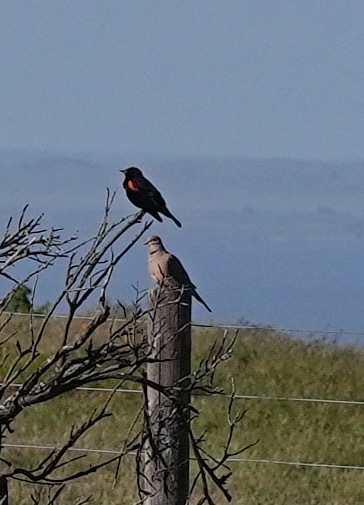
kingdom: Animalia
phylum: Chordata
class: Aves
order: Columbiformes
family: Columbidae
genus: Zenaida
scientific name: Zenaida macroura
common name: Mourning dove
